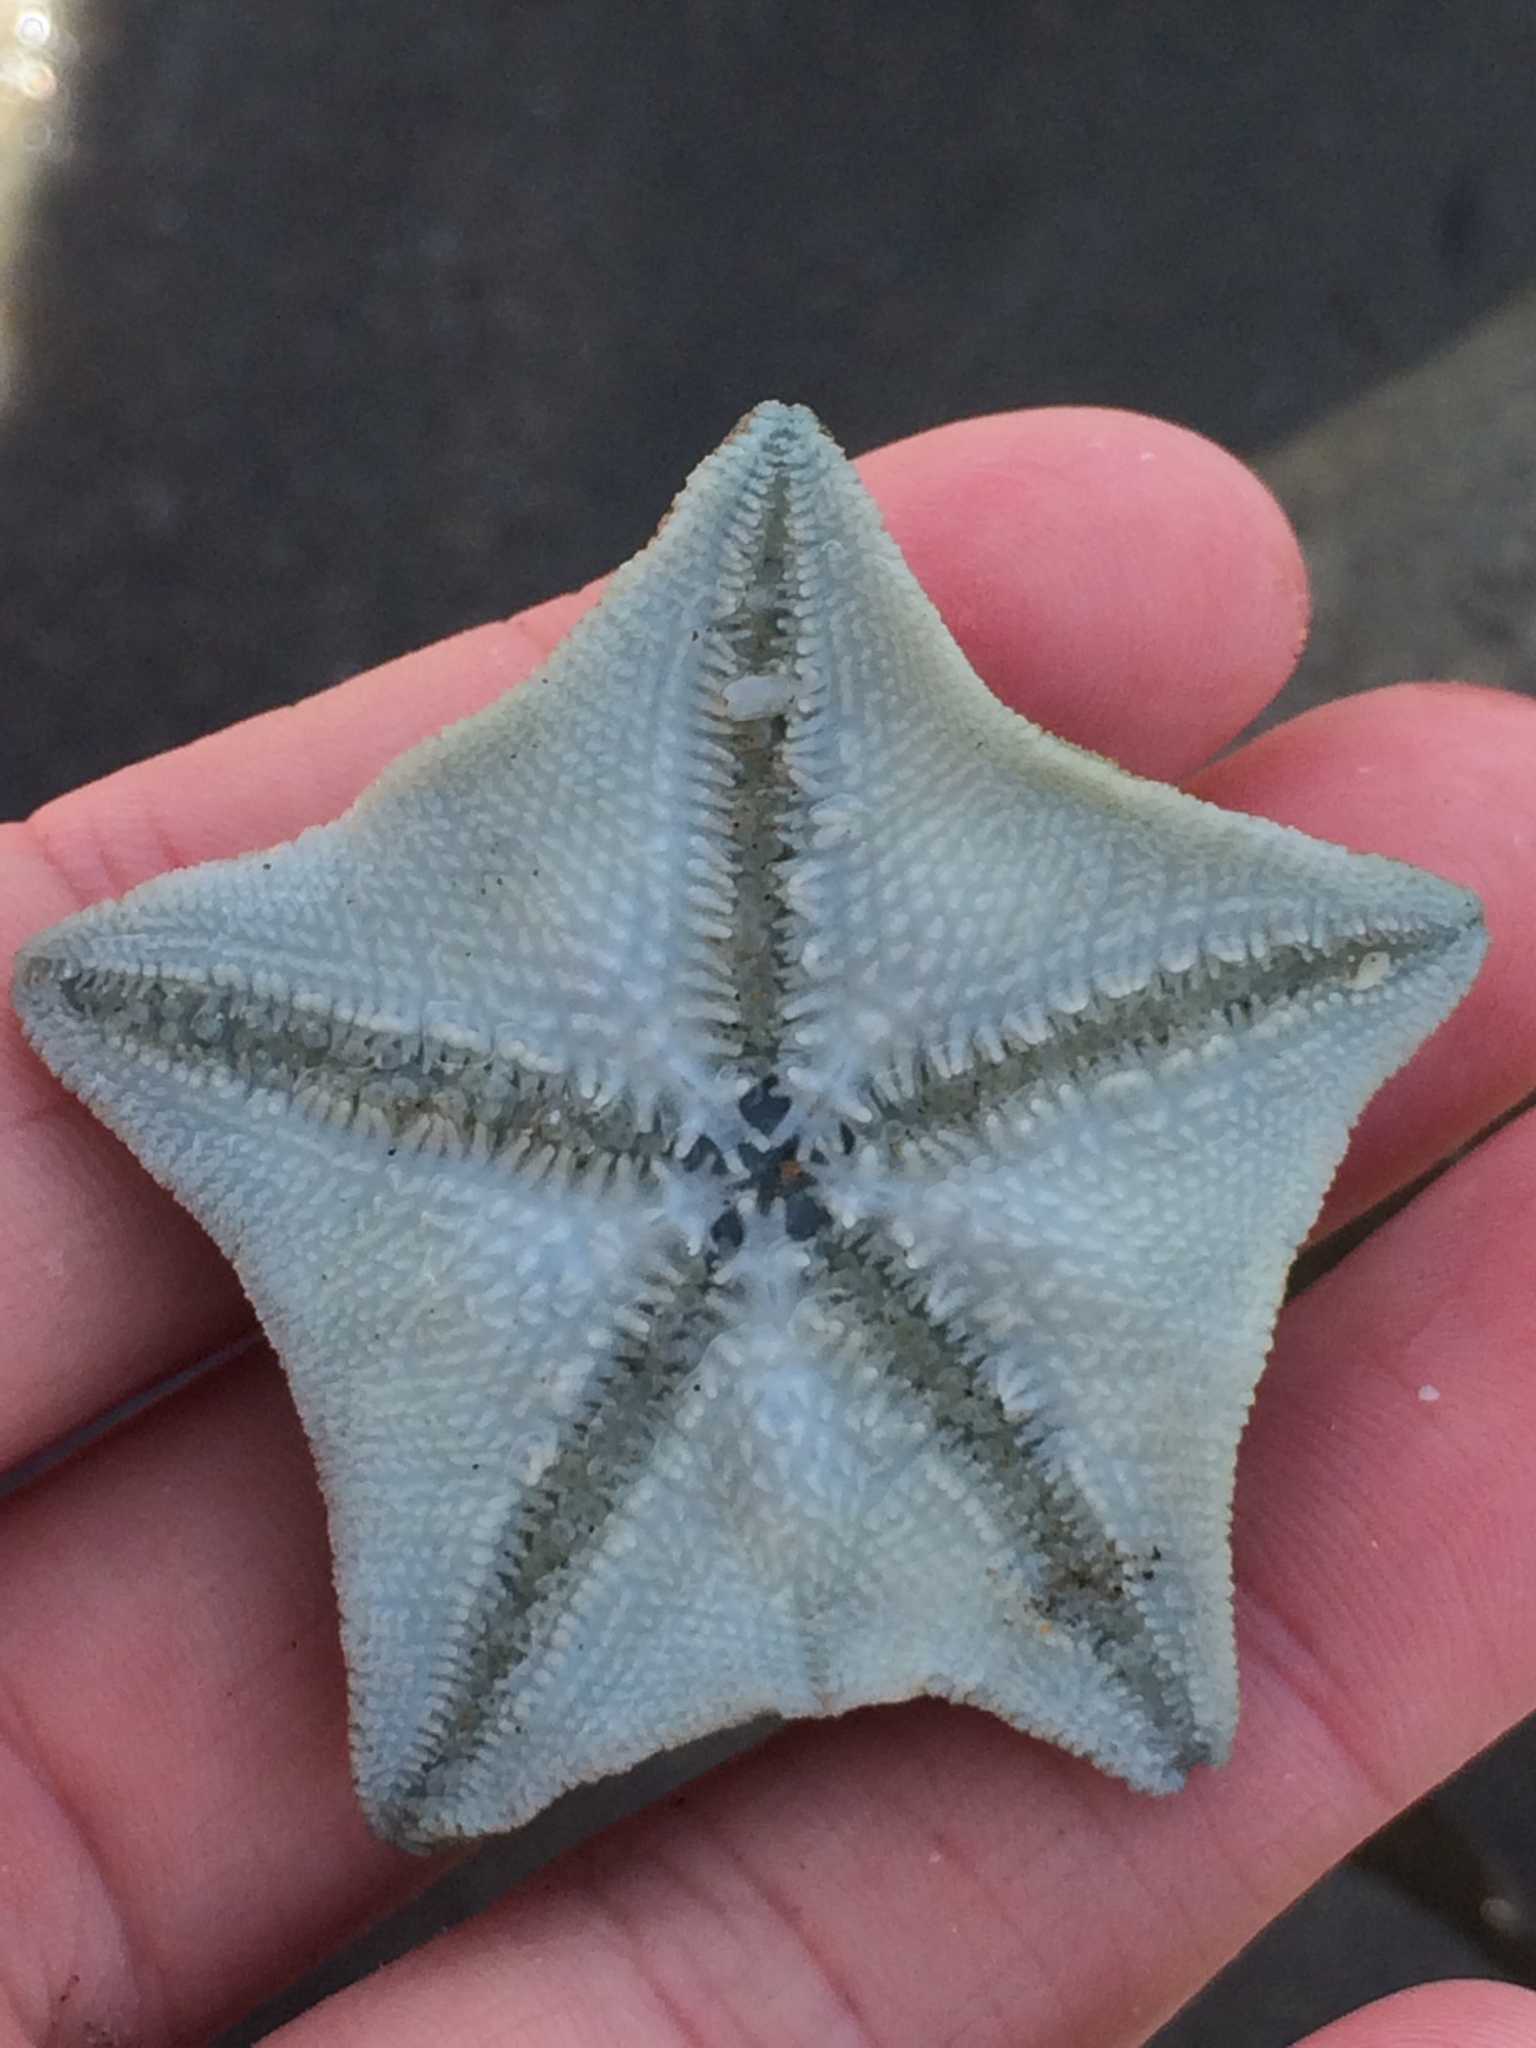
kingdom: Animalia
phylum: Echinodermata
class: Asteroidea
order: Valvatida
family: Asterinidae
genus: Patiriella
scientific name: Patiriella regularis
